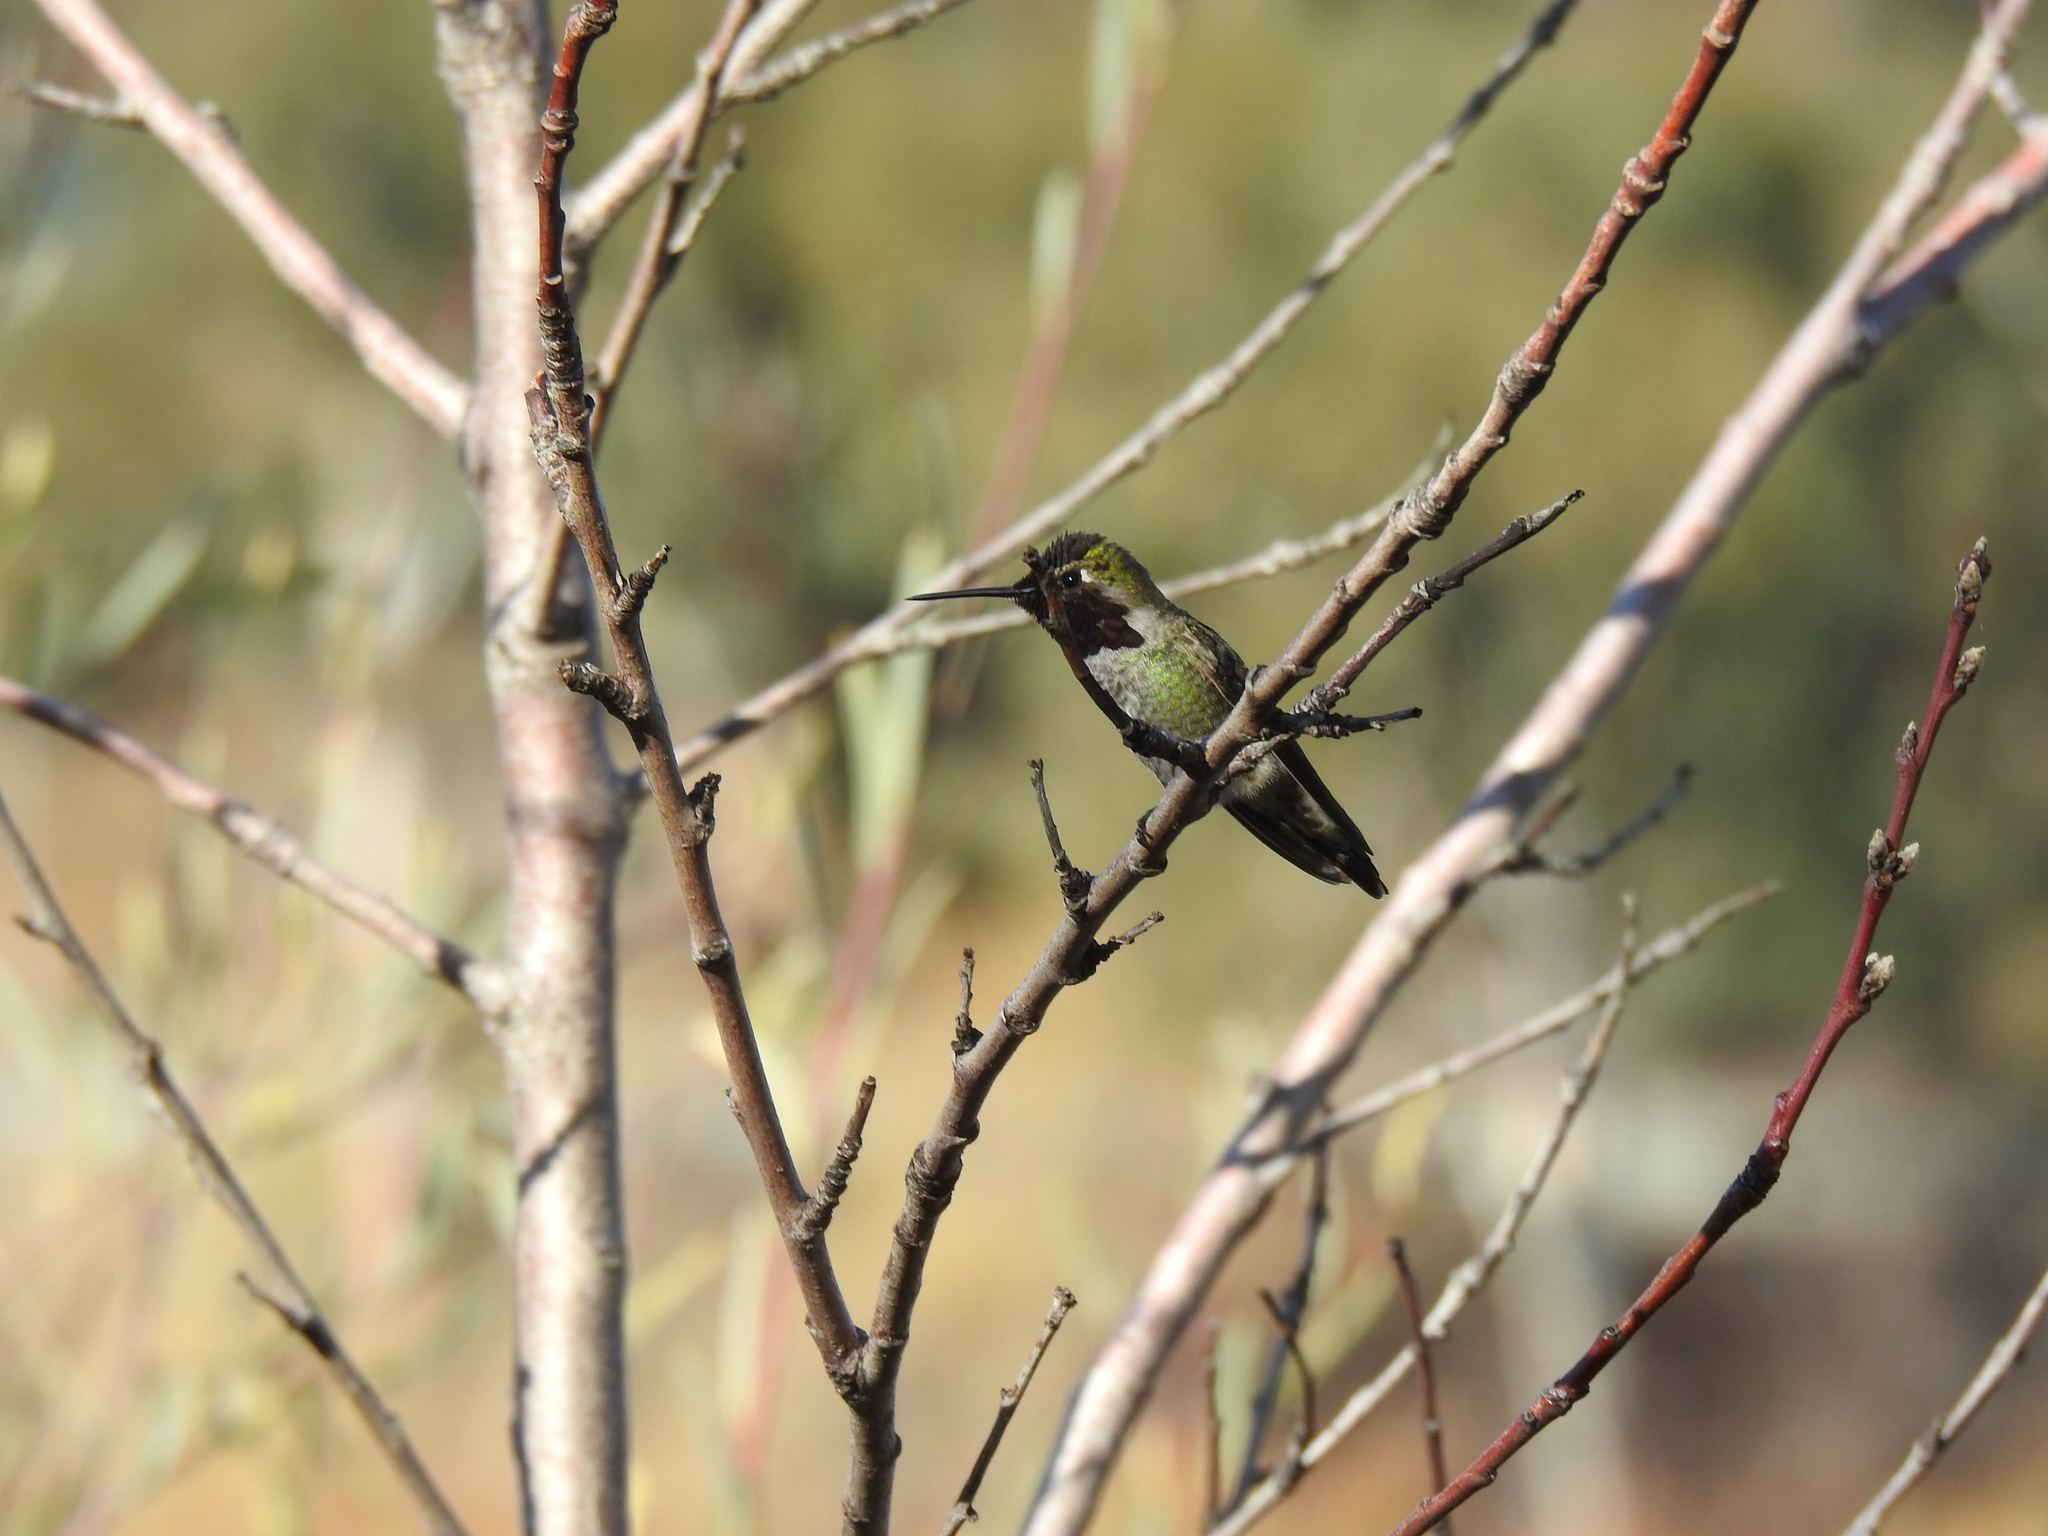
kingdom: Animalia
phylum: Chordata
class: Aves
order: Apodiformes
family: Trochilidae
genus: Calypte
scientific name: Calypte anna
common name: Anna's hummingbird
